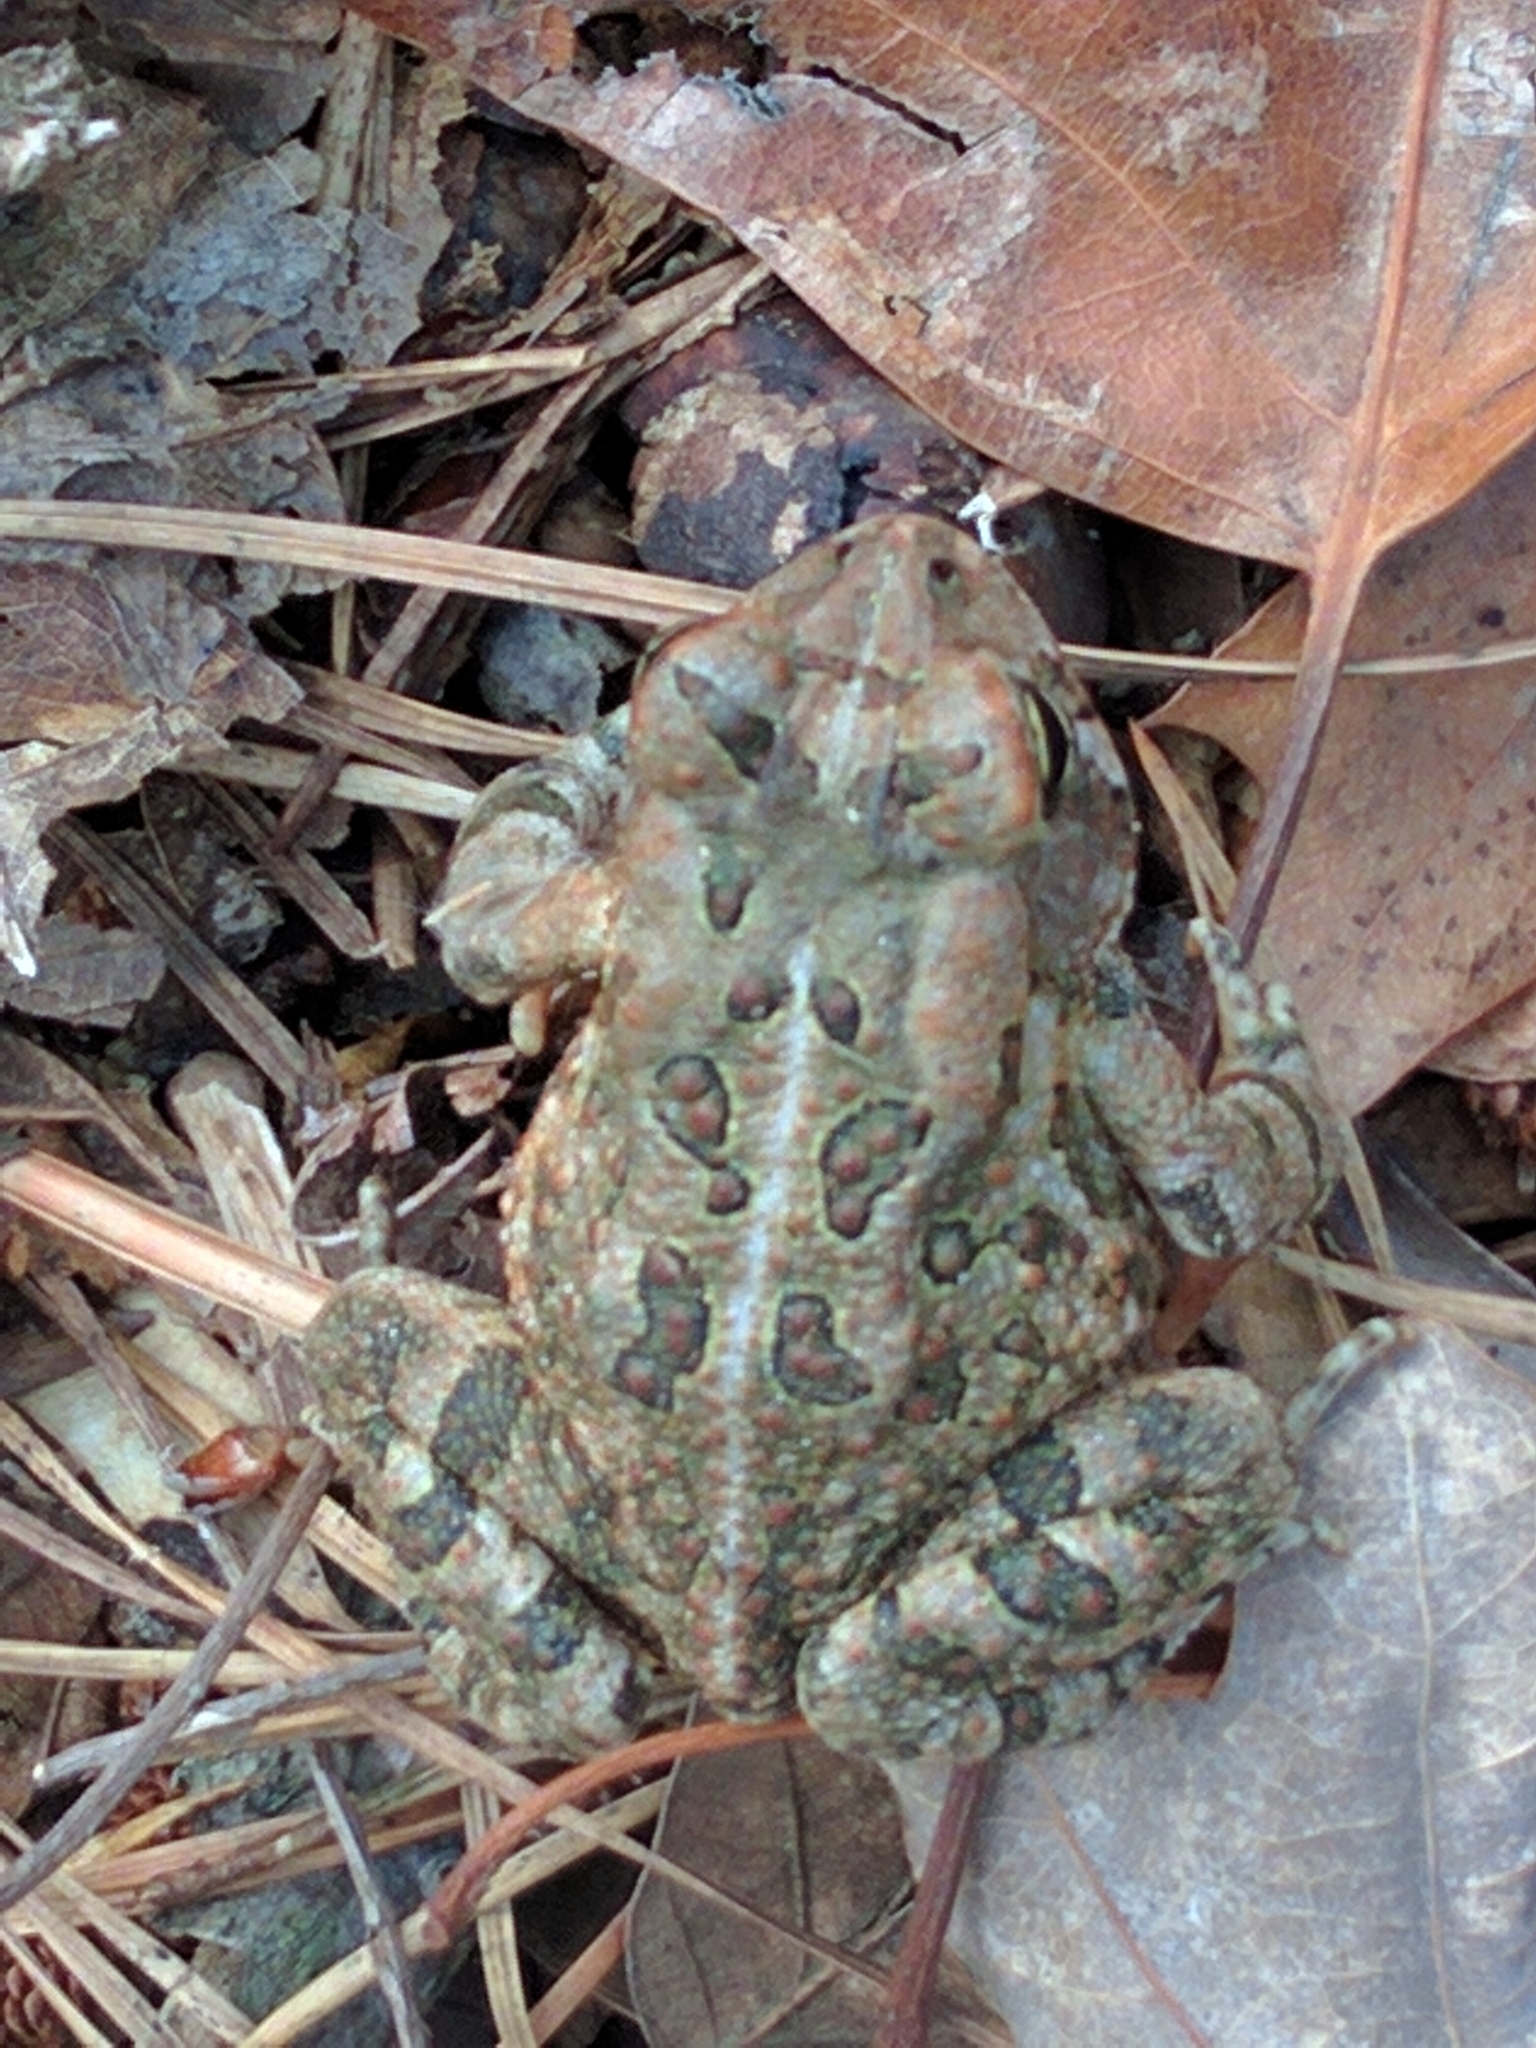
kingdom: Animalia
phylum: Chordata
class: Amphibia
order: Anura
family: Bufonidae
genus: Anaxyrus
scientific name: Anaxyrus fowleri
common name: Fowler's toad
